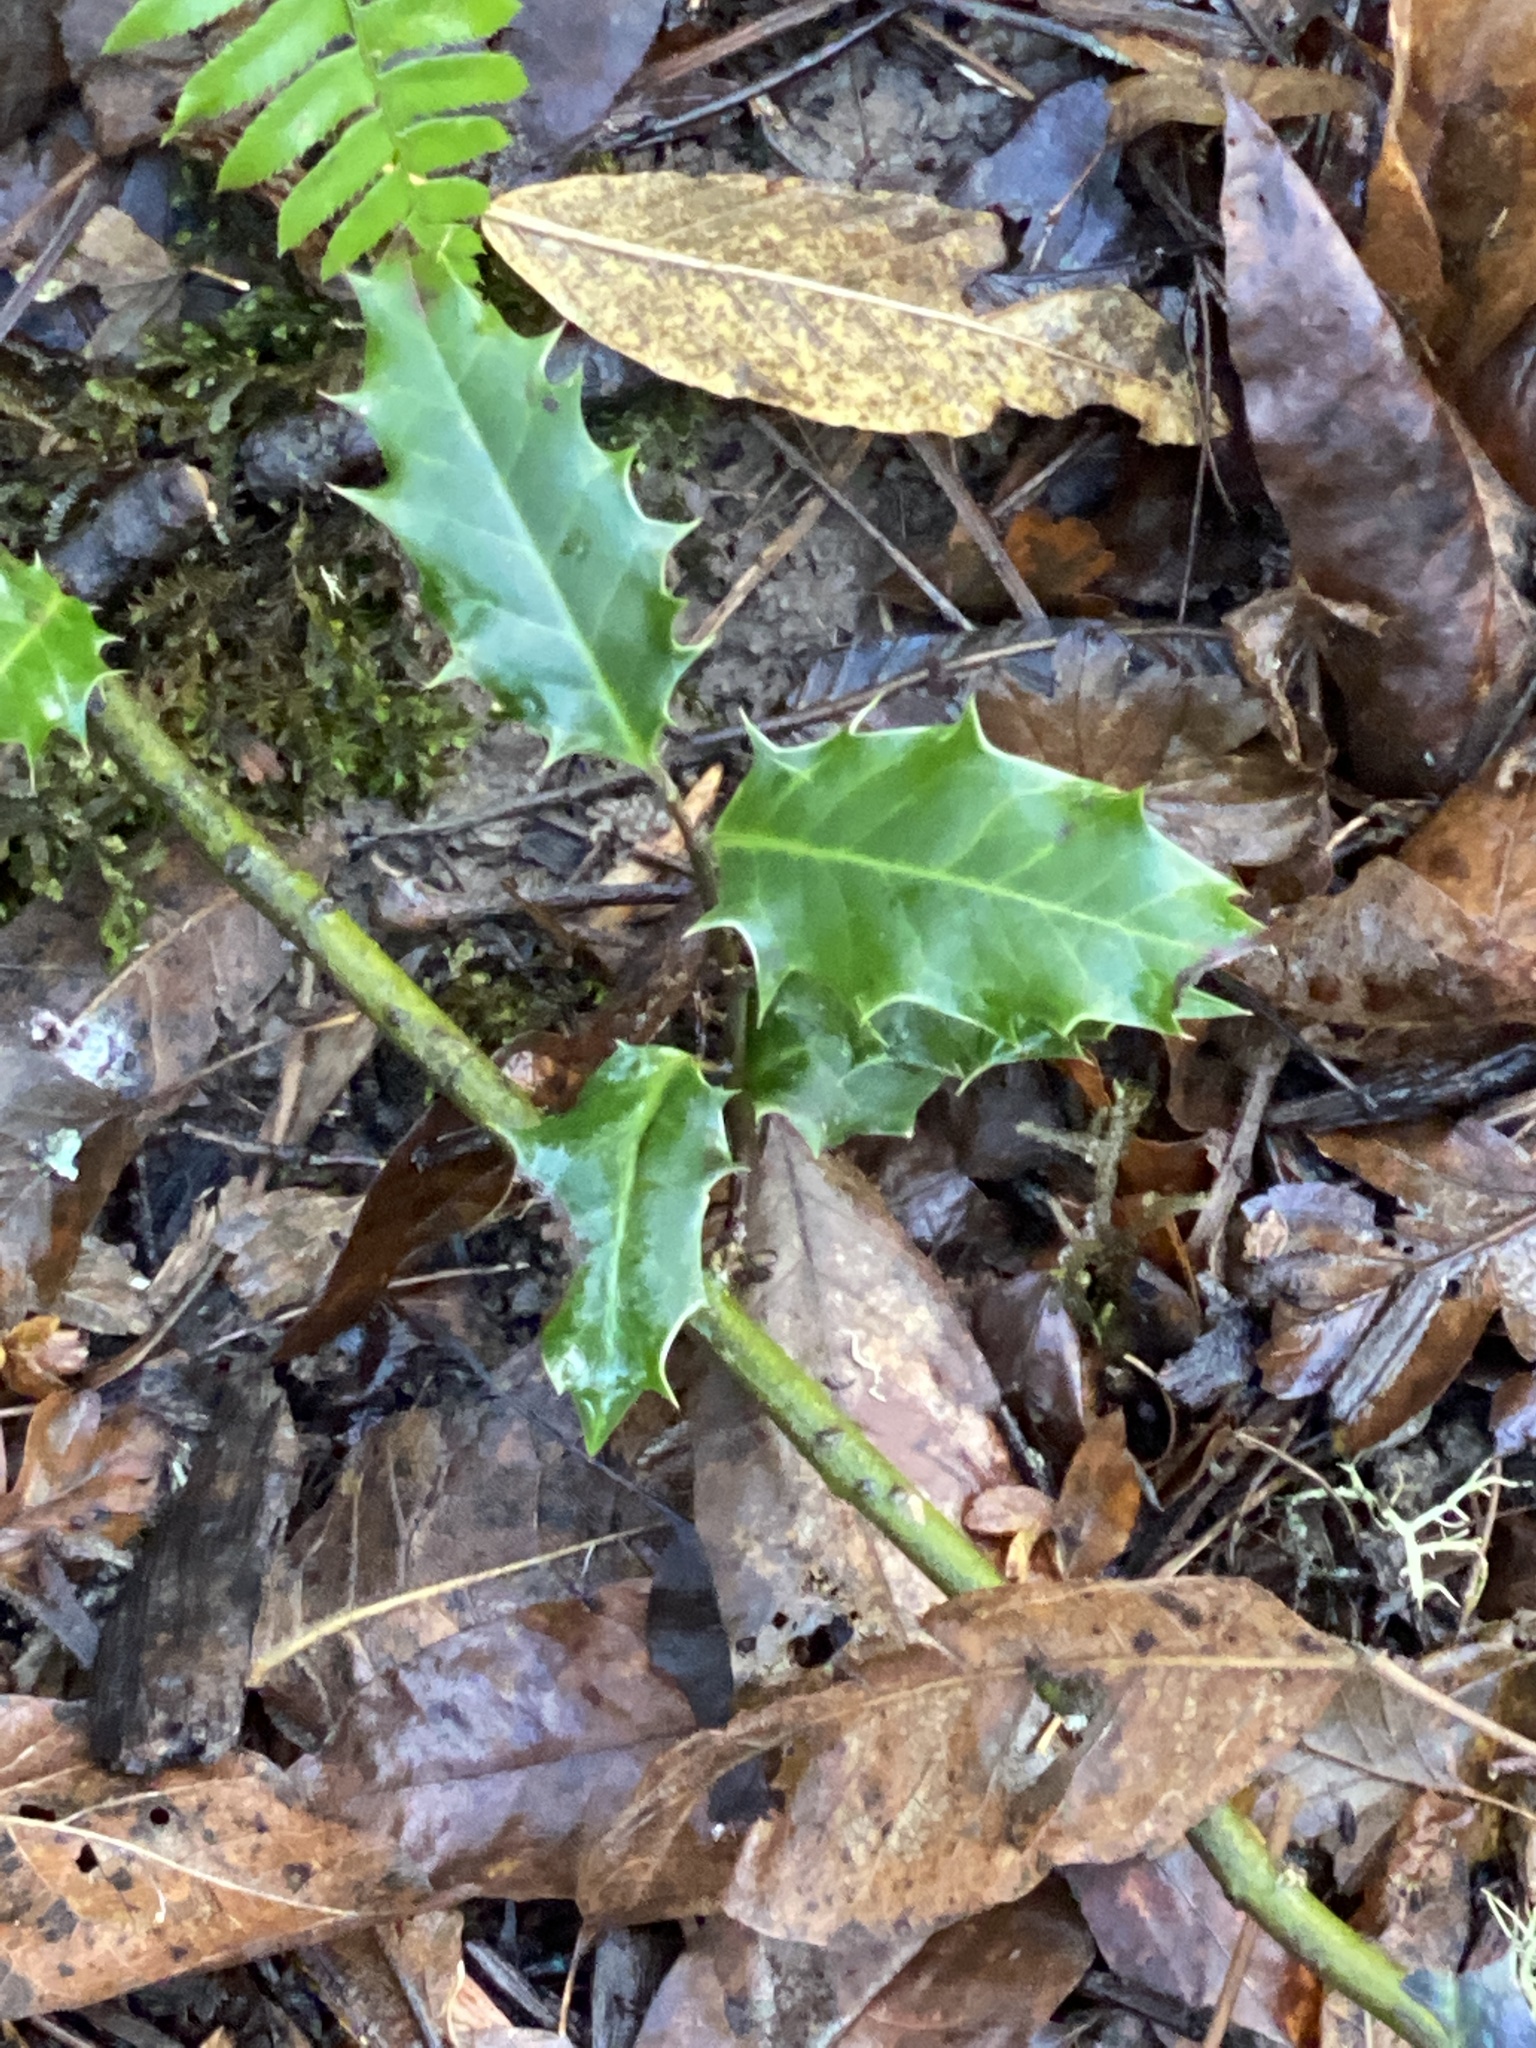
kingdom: Plantae
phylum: Tracheophyta
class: Magnoliopsida
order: Aquifoliales
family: Aquifoliaceae
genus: Ilex
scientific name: Ilex aquifolium
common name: English holly
